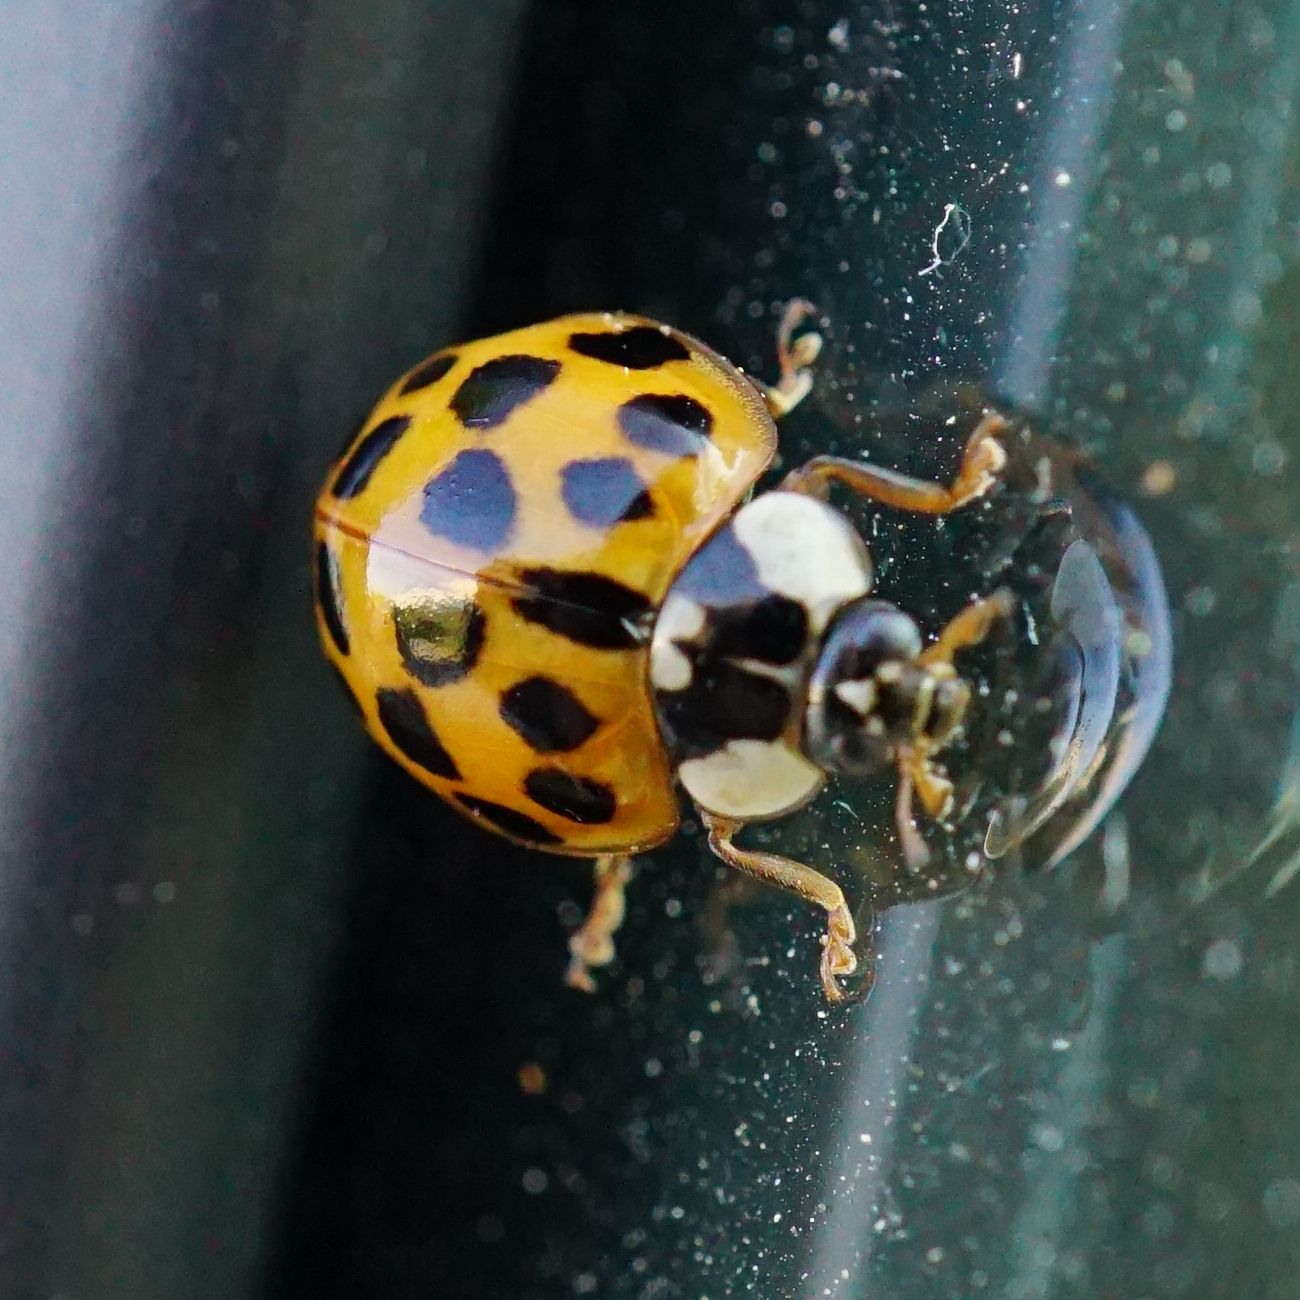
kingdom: Animalia
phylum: Arthropoda
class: Insecta
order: Coleoptera
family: Coccinellidae
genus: Harmonia
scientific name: Harmonia axyridis
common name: Harlequin ladybird
